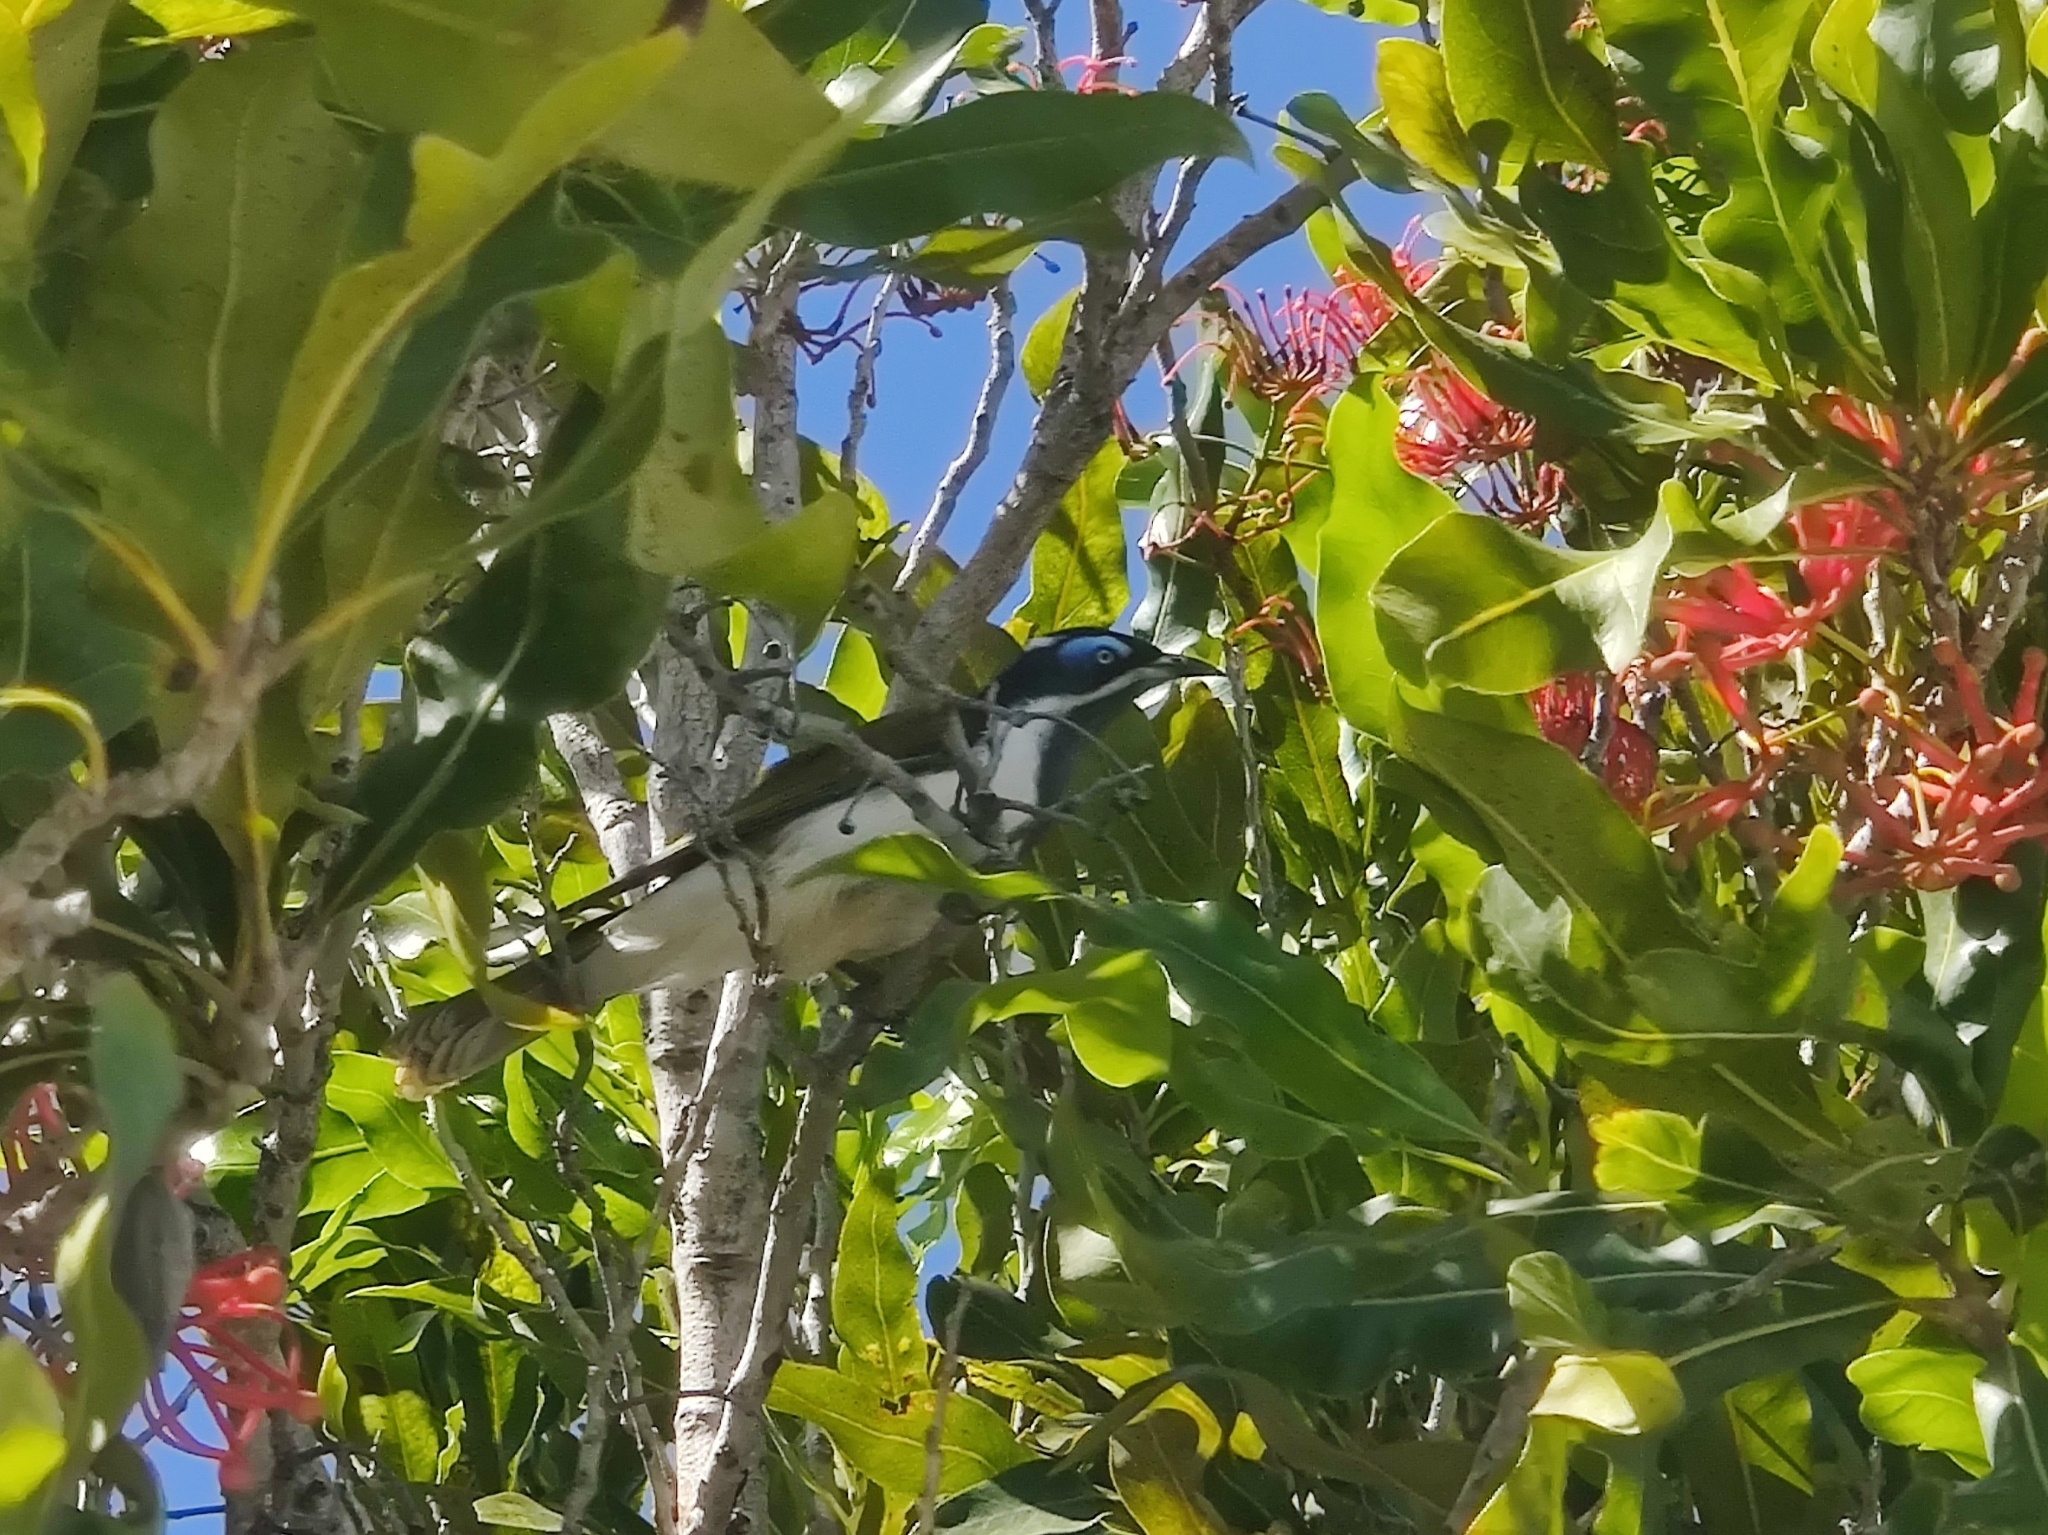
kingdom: Animalia
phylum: Chordata
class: Aves
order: Passeriformes
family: Meliphagidae
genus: Entomyzon
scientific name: Entomyzon cyanotis
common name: Blue-faced honeyeater
